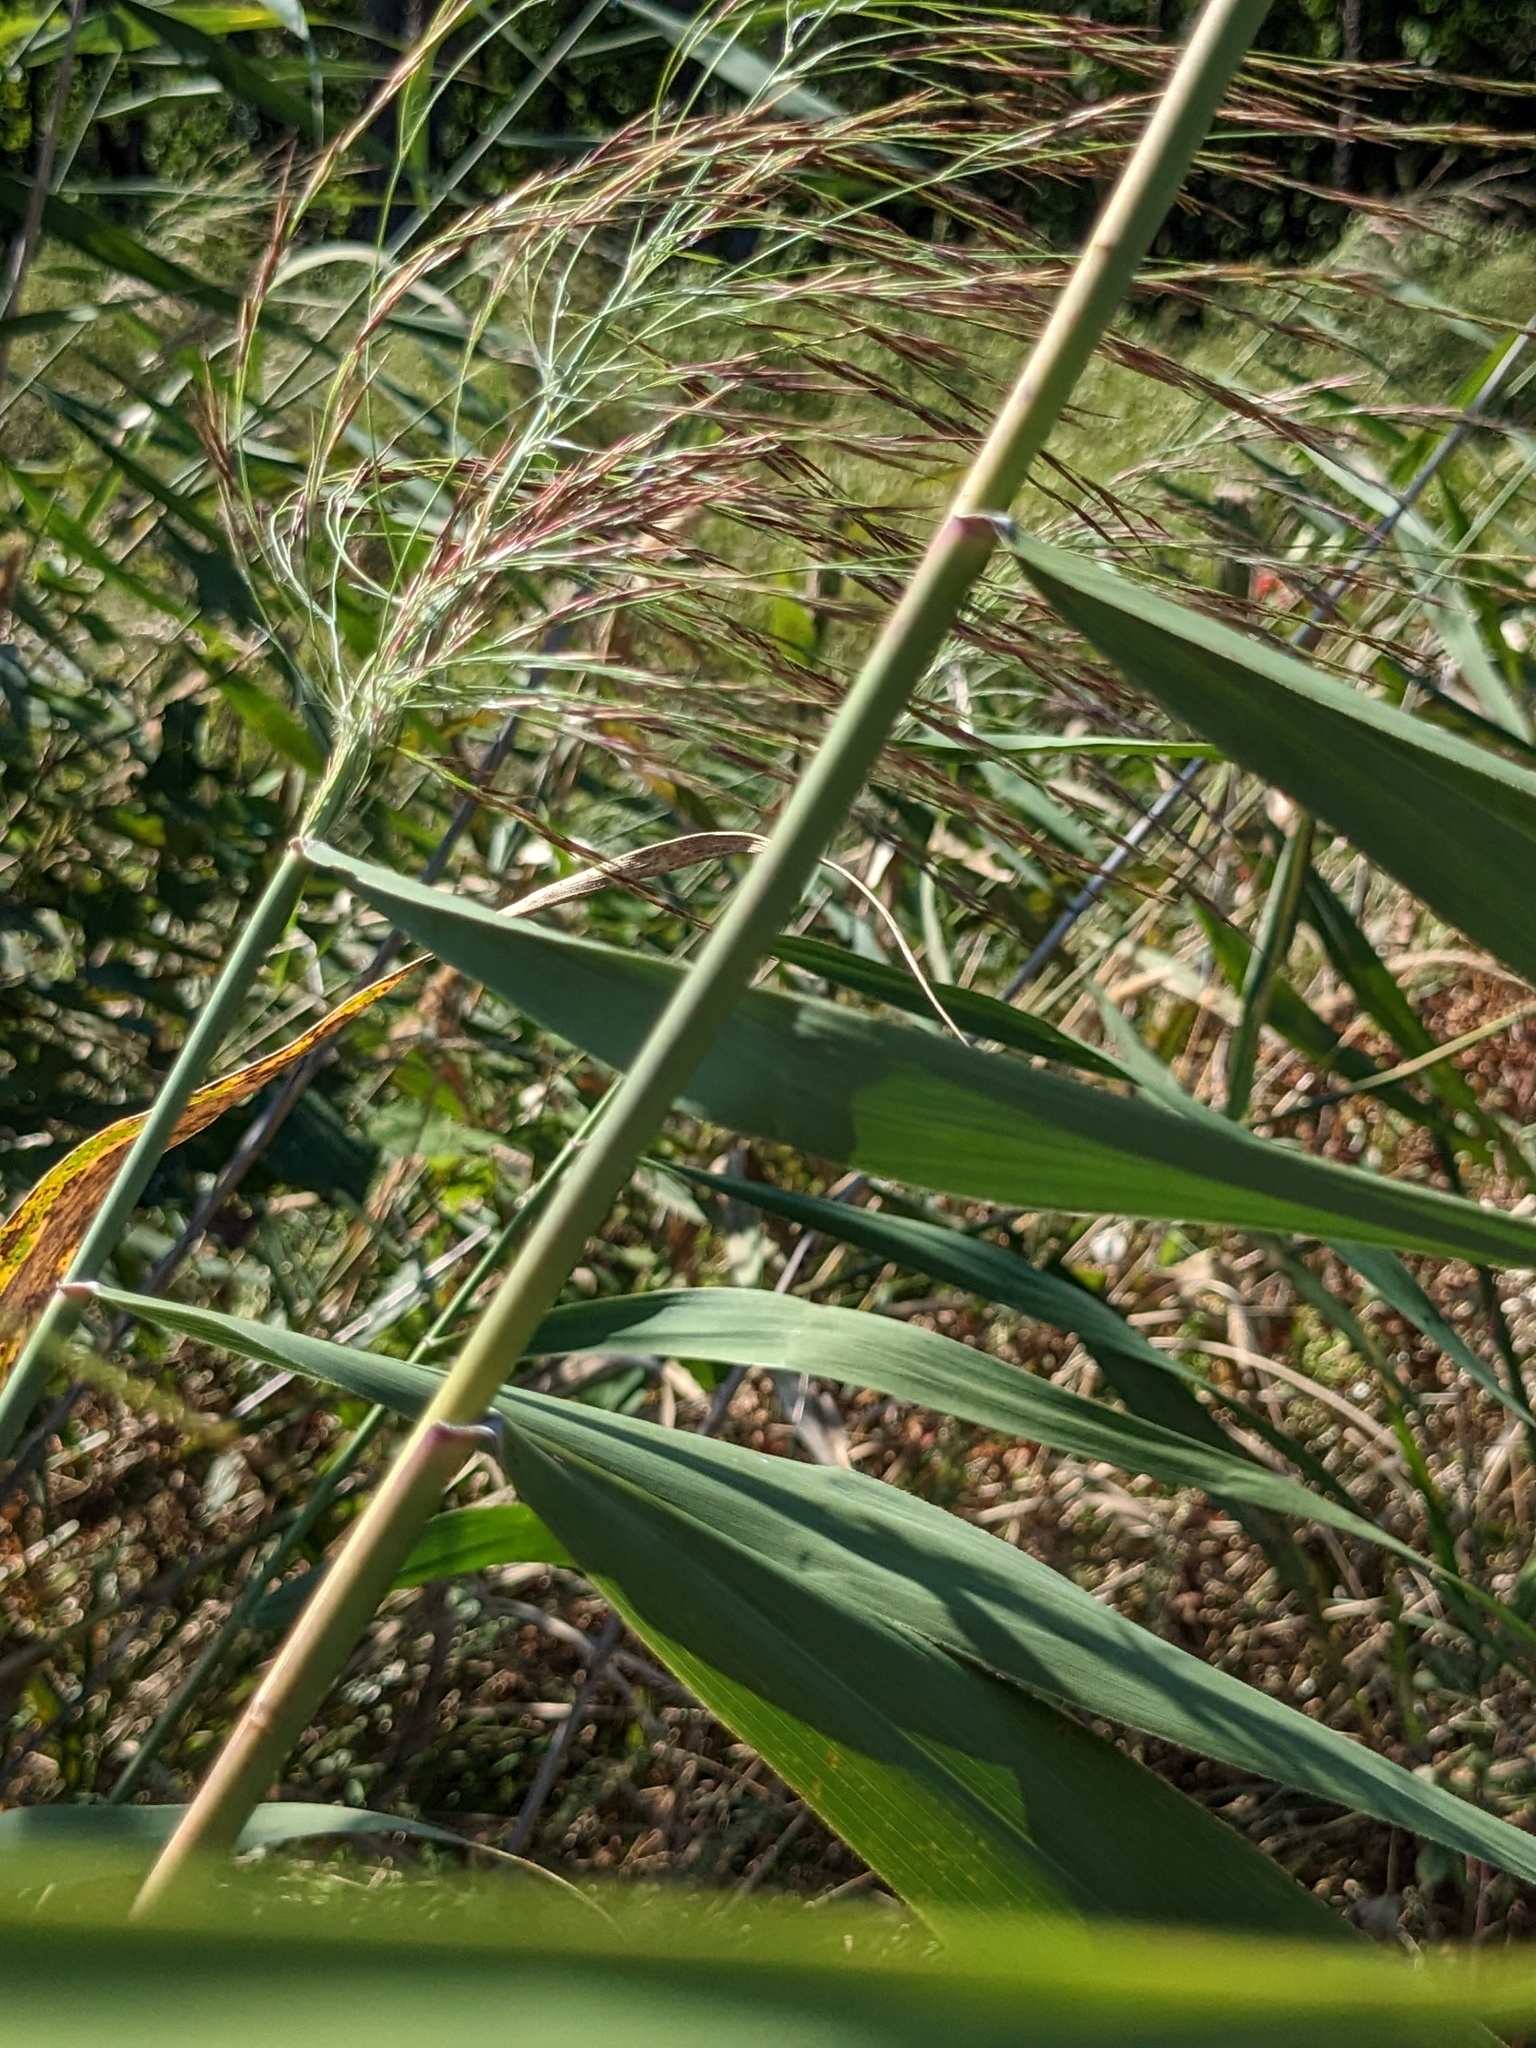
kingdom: Plantae
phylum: Tracheophyta
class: Liliopsida
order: Poales
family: Poaceae
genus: Phragmites
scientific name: Phragmites australis
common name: Common reed
